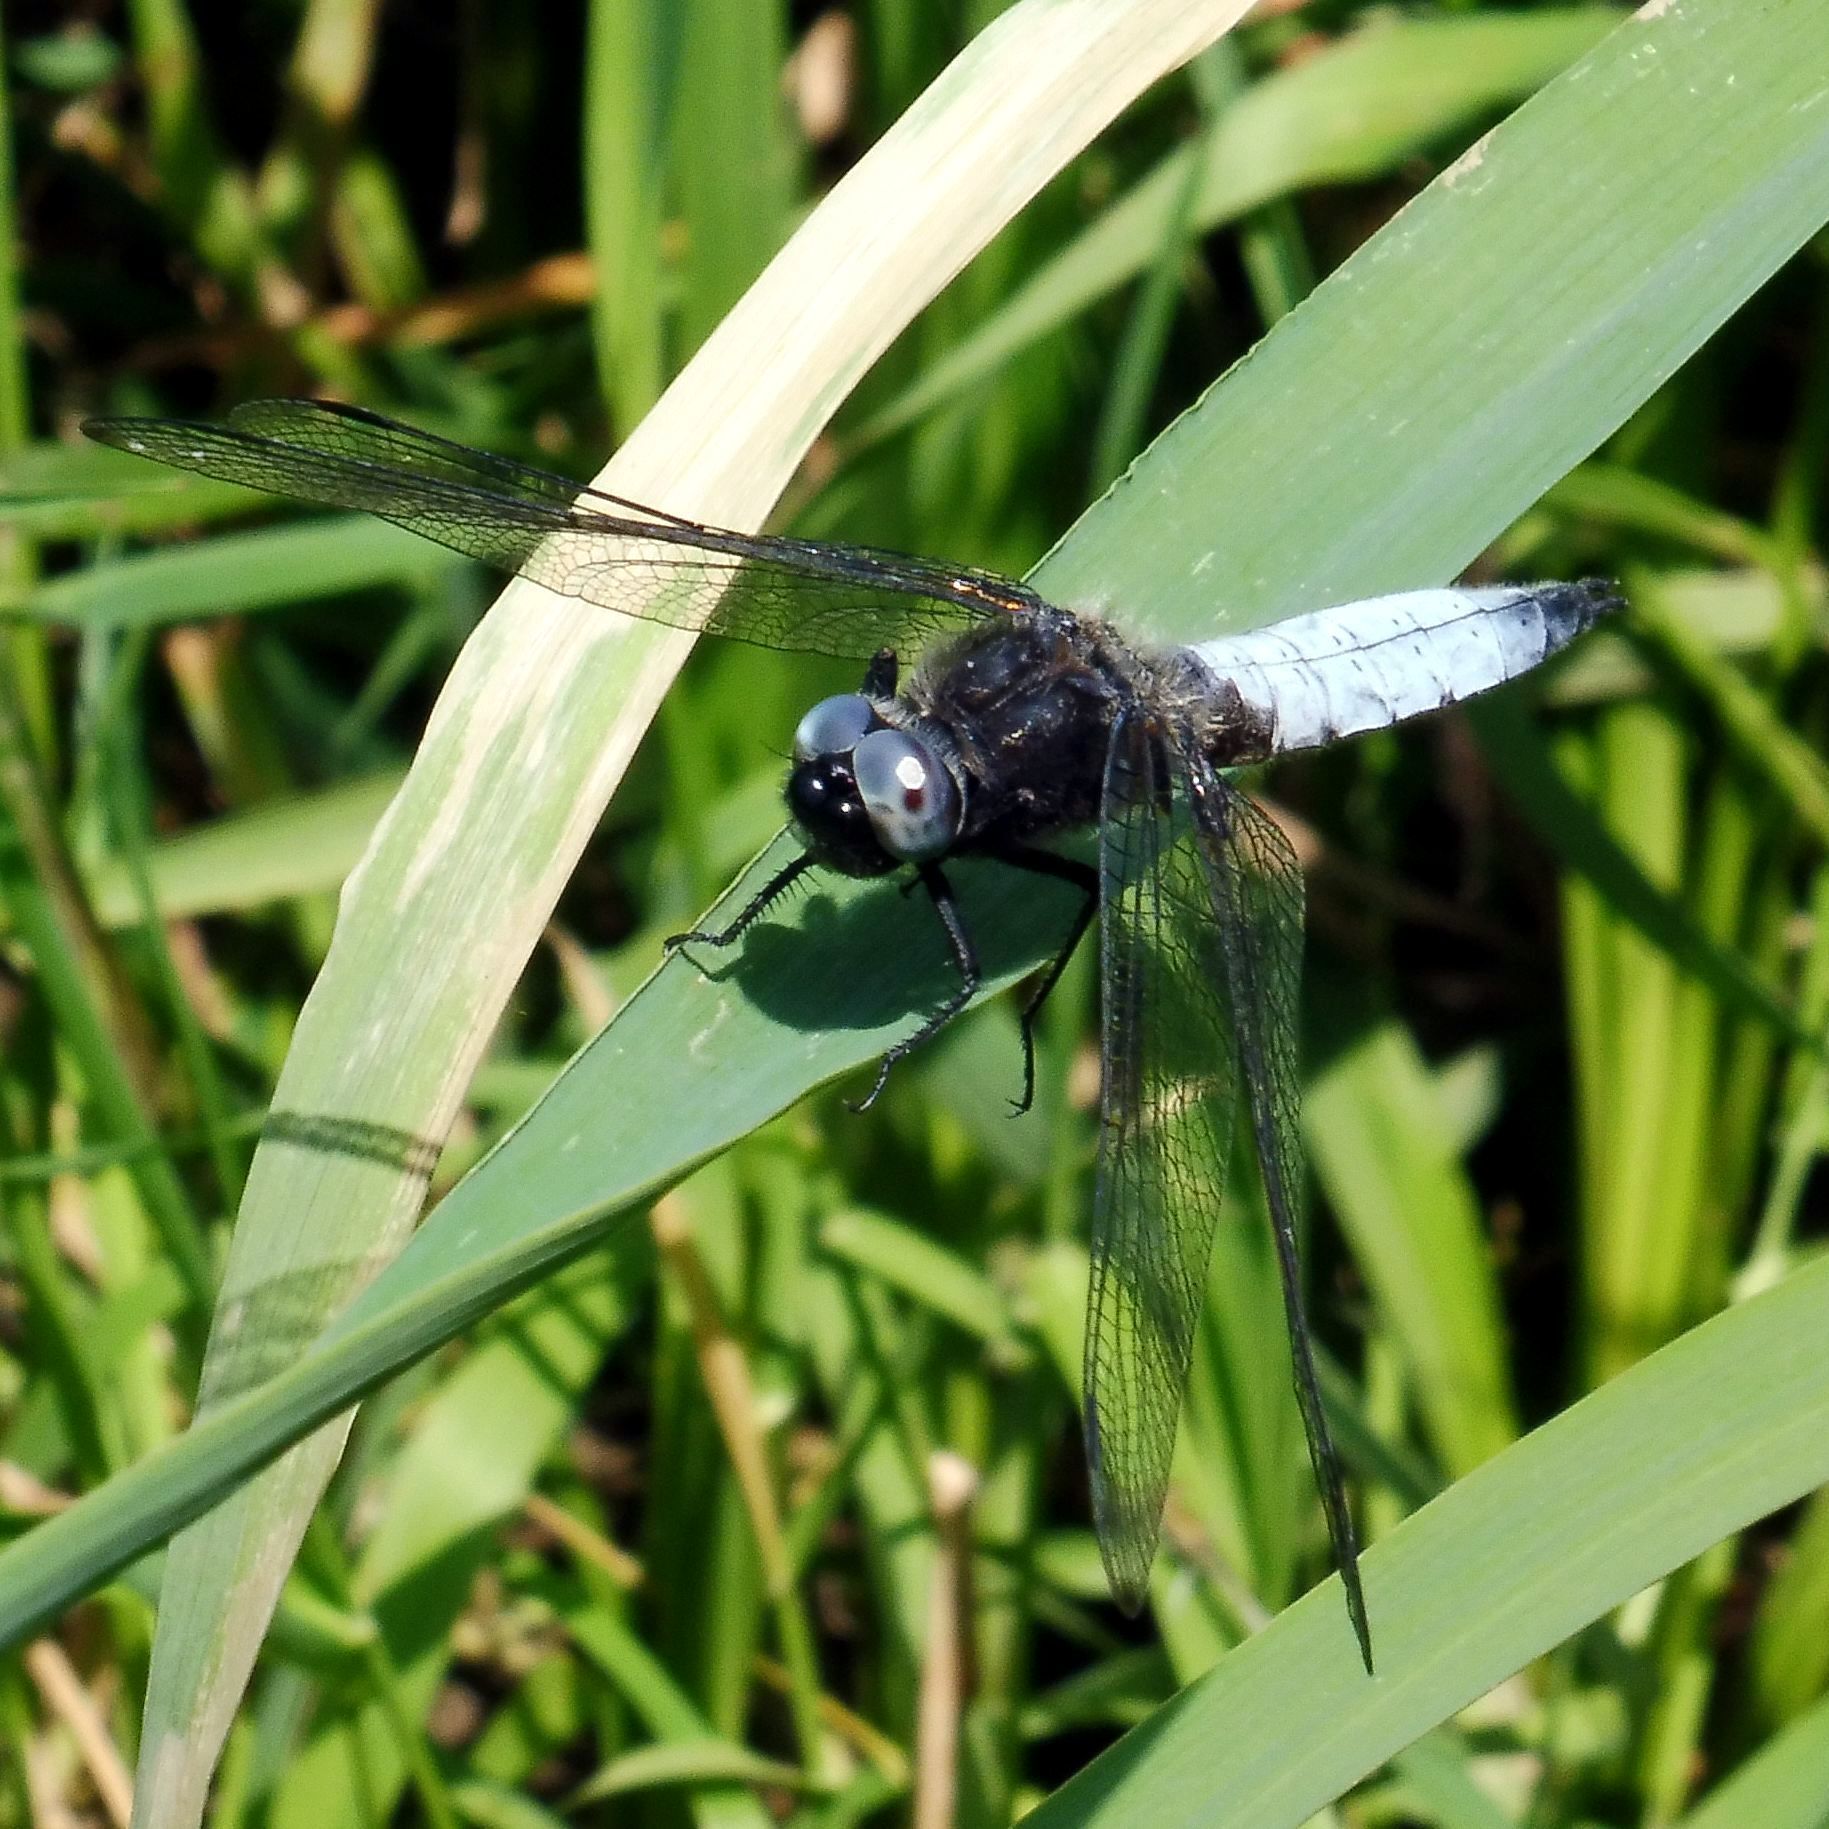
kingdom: Animalia
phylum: Arthropoda
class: Insecta
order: Odonata
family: Libellulidae
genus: Libellula
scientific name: Libellula fulva
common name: Blue chaser
